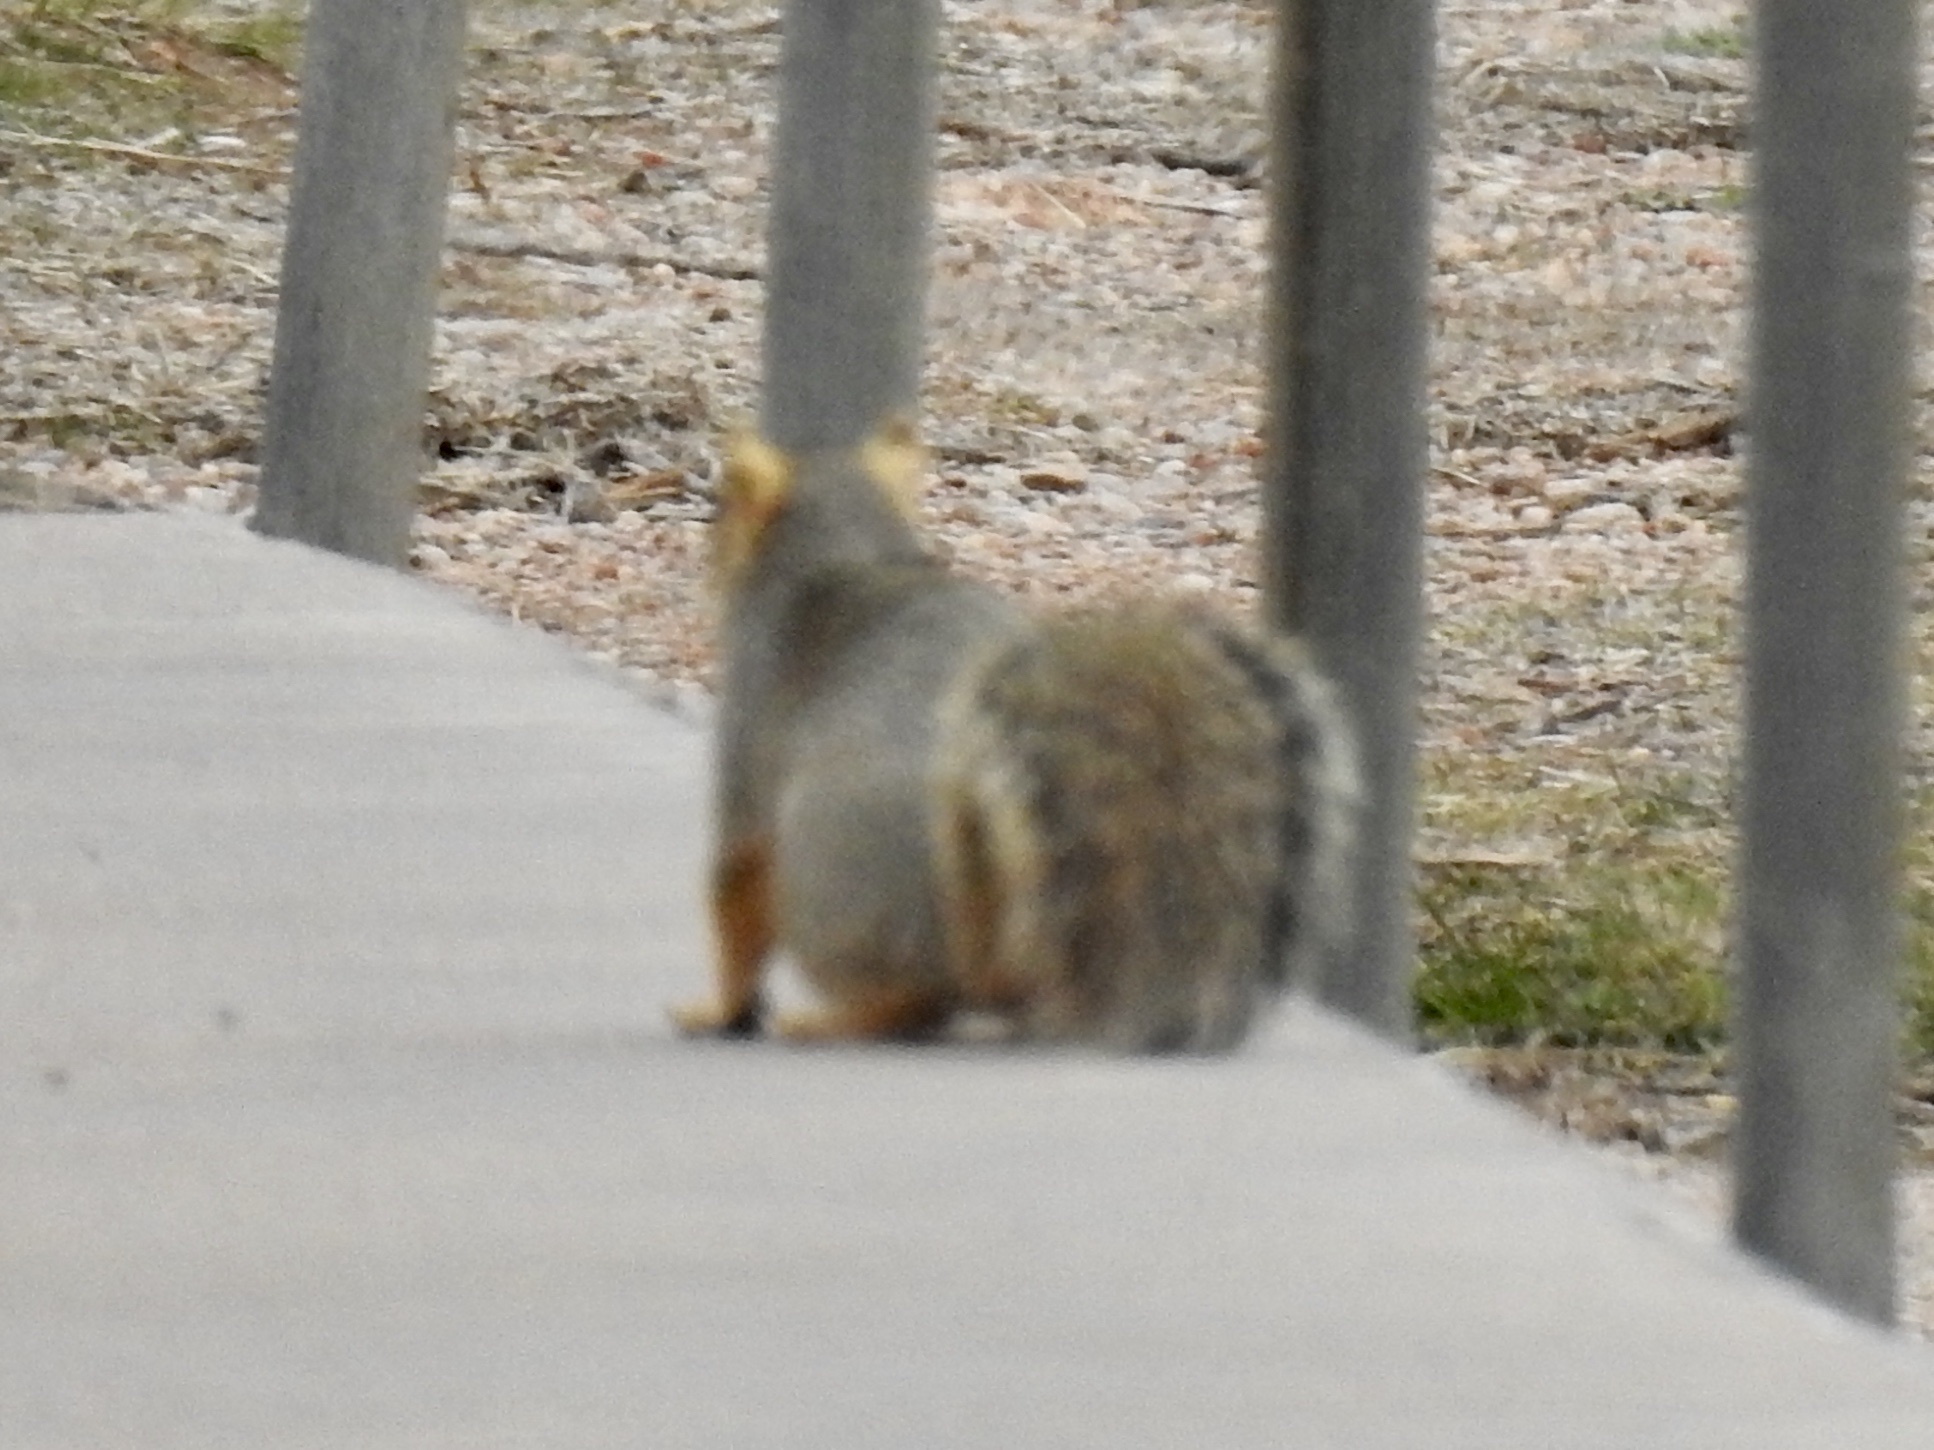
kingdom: Animalia
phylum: Chordata
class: Mammalia
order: Rodentia
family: Sciuridae
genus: Sciurus
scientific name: Sciurus niger
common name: Fox squirrel
